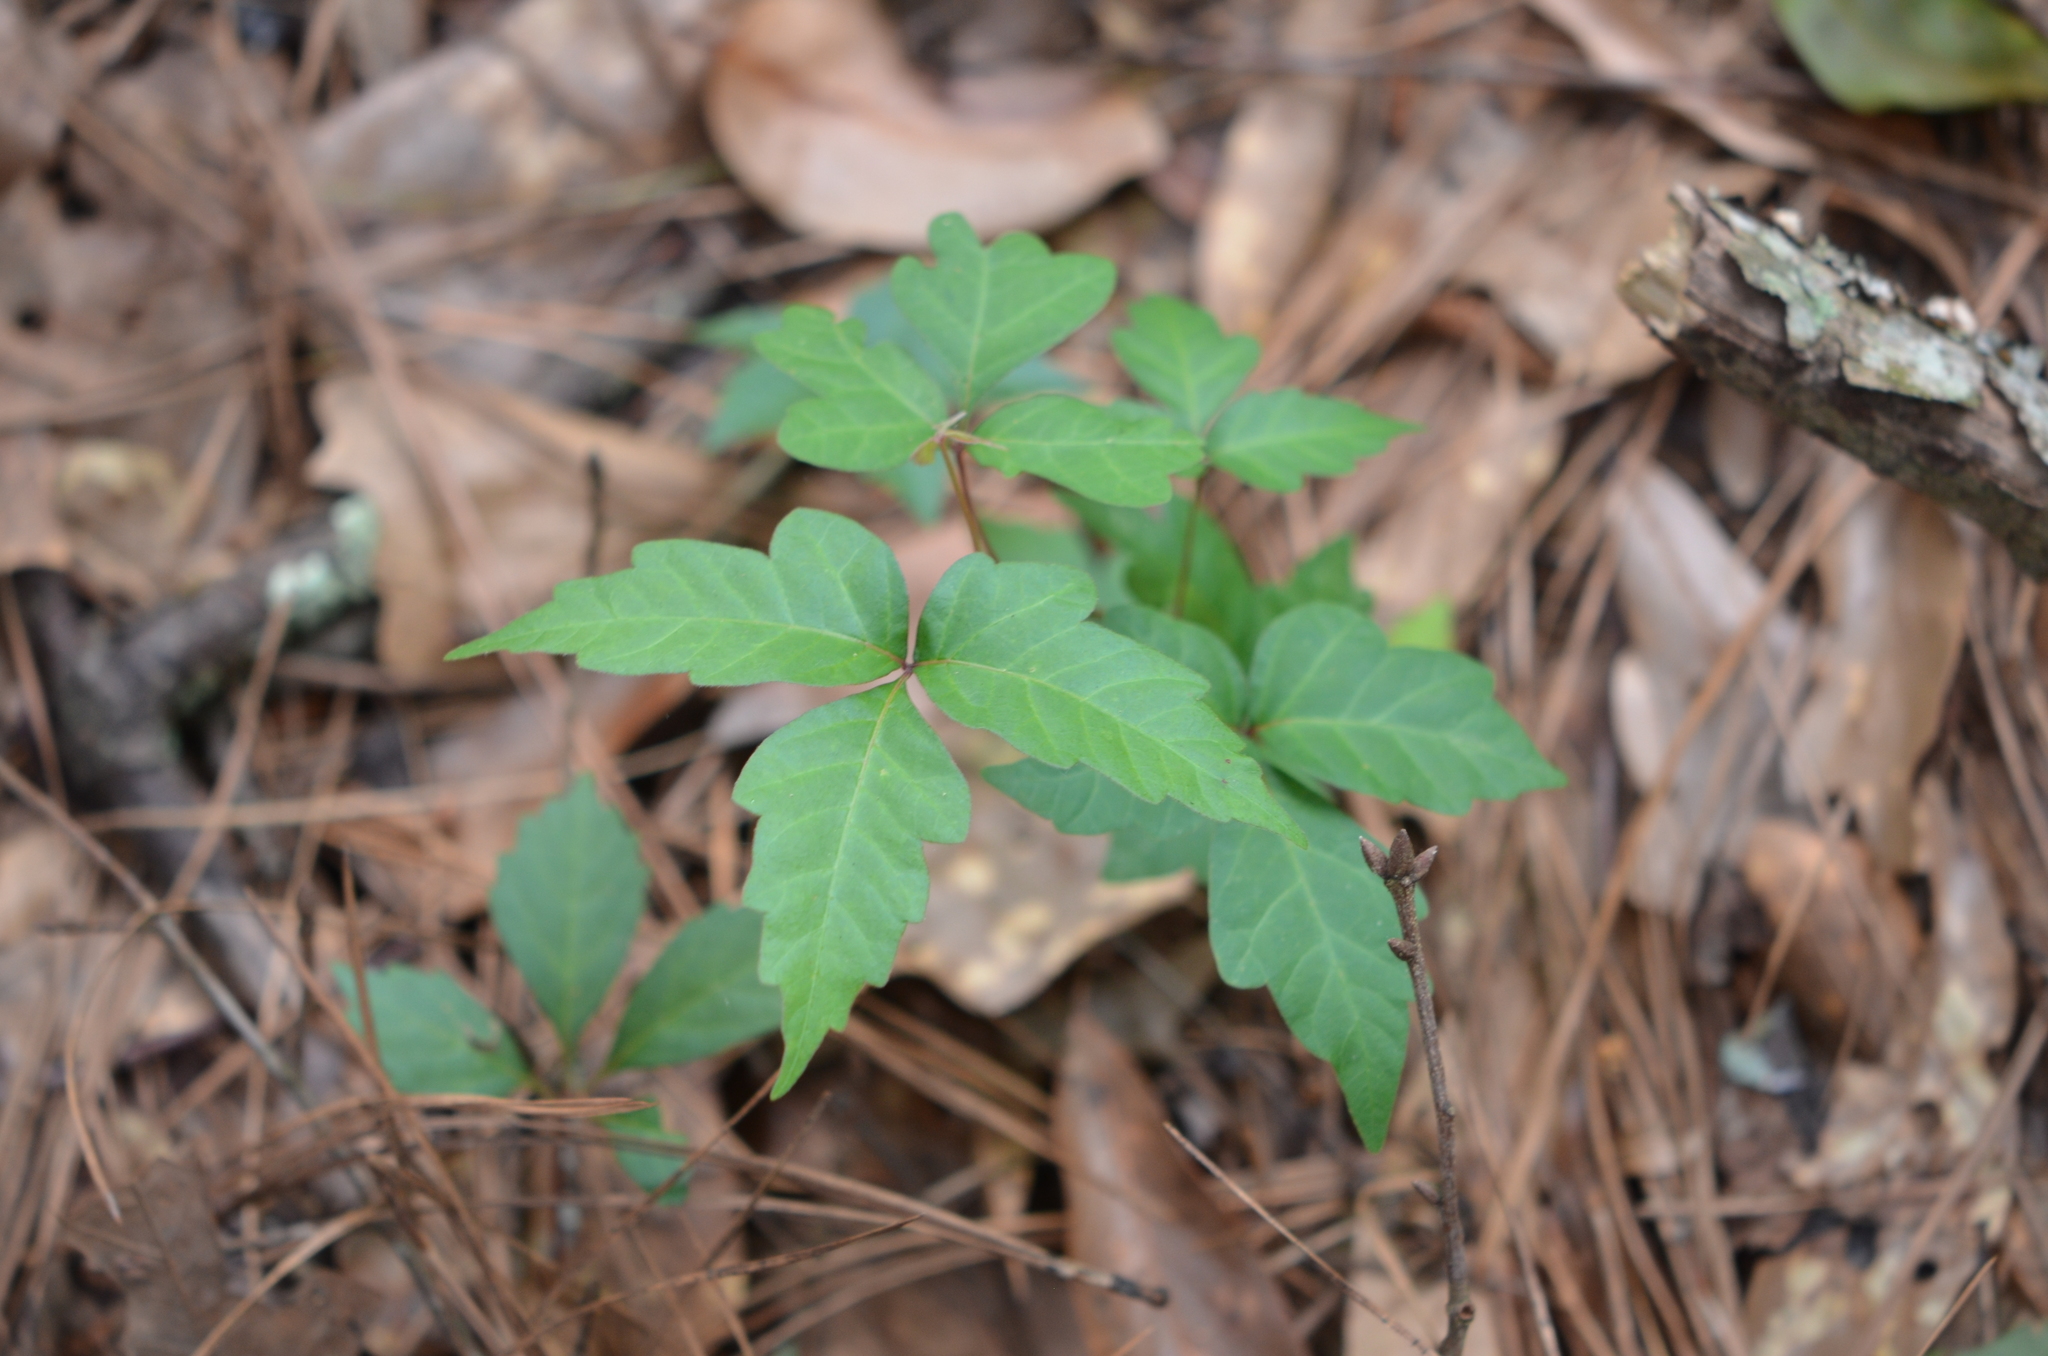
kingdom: Plantae
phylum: Tracheophyta
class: Magnoliopsida
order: Sapindales
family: Anacardiaceae
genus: Toxicodendron
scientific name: Toxicodendron radicans
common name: Poison ivy
